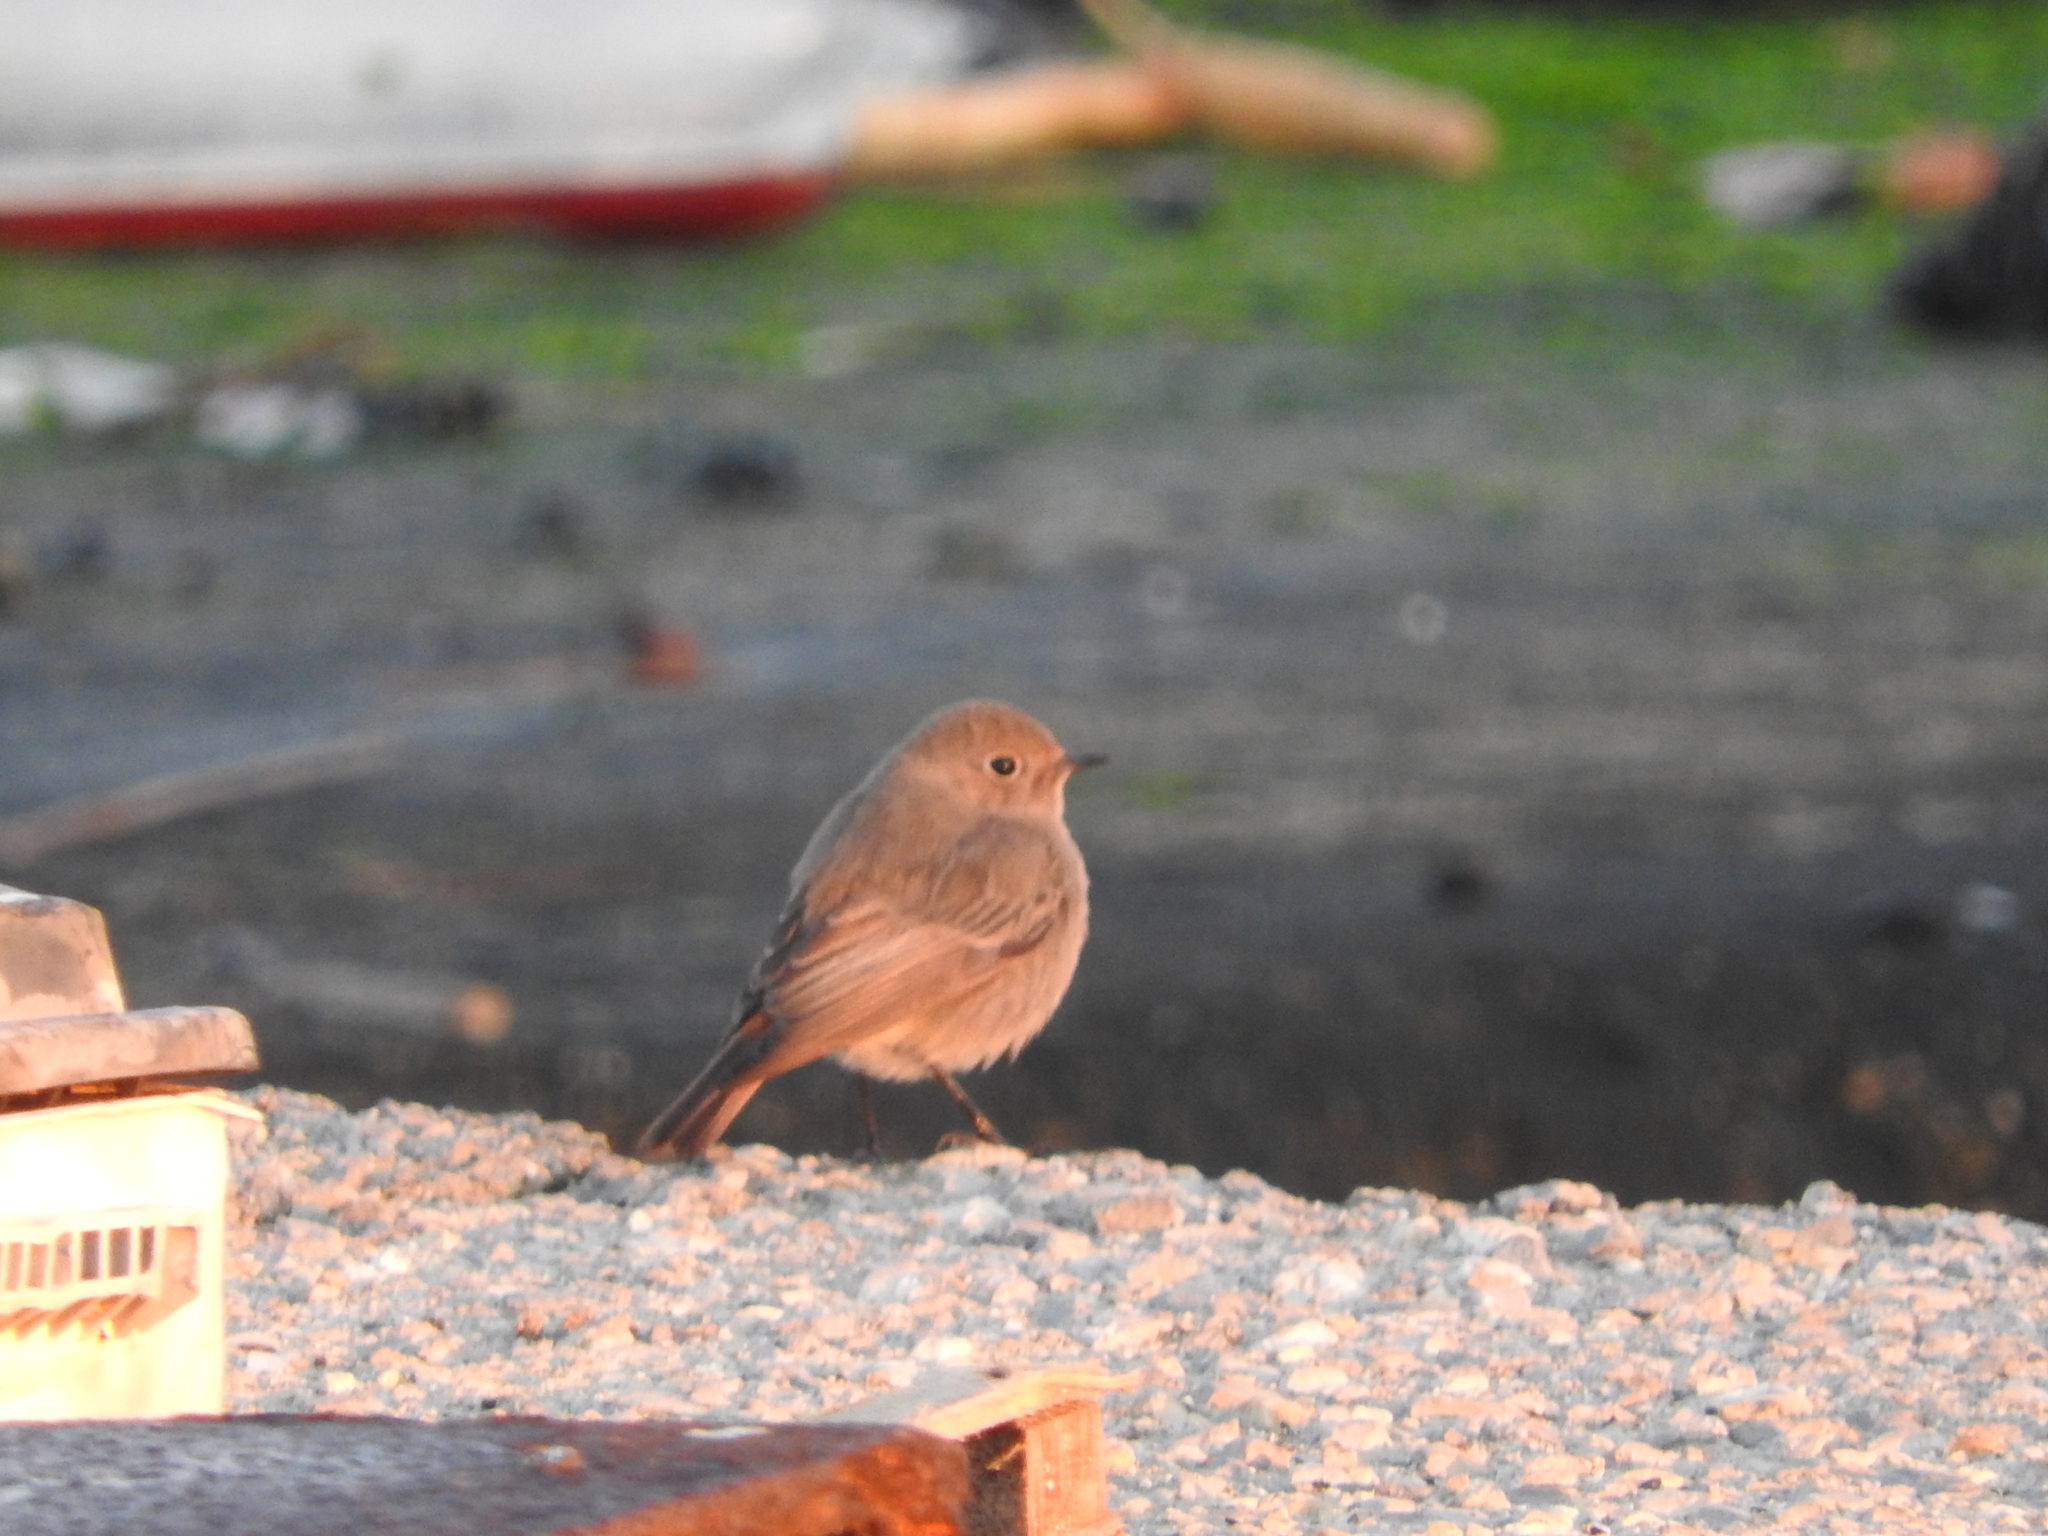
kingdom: Animalia
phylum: Chordata
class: Aves
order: Passeriformes
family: Muscicapidae
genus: Phoenicurus
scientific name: Phoenicurus ochruros
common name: Black redstart
